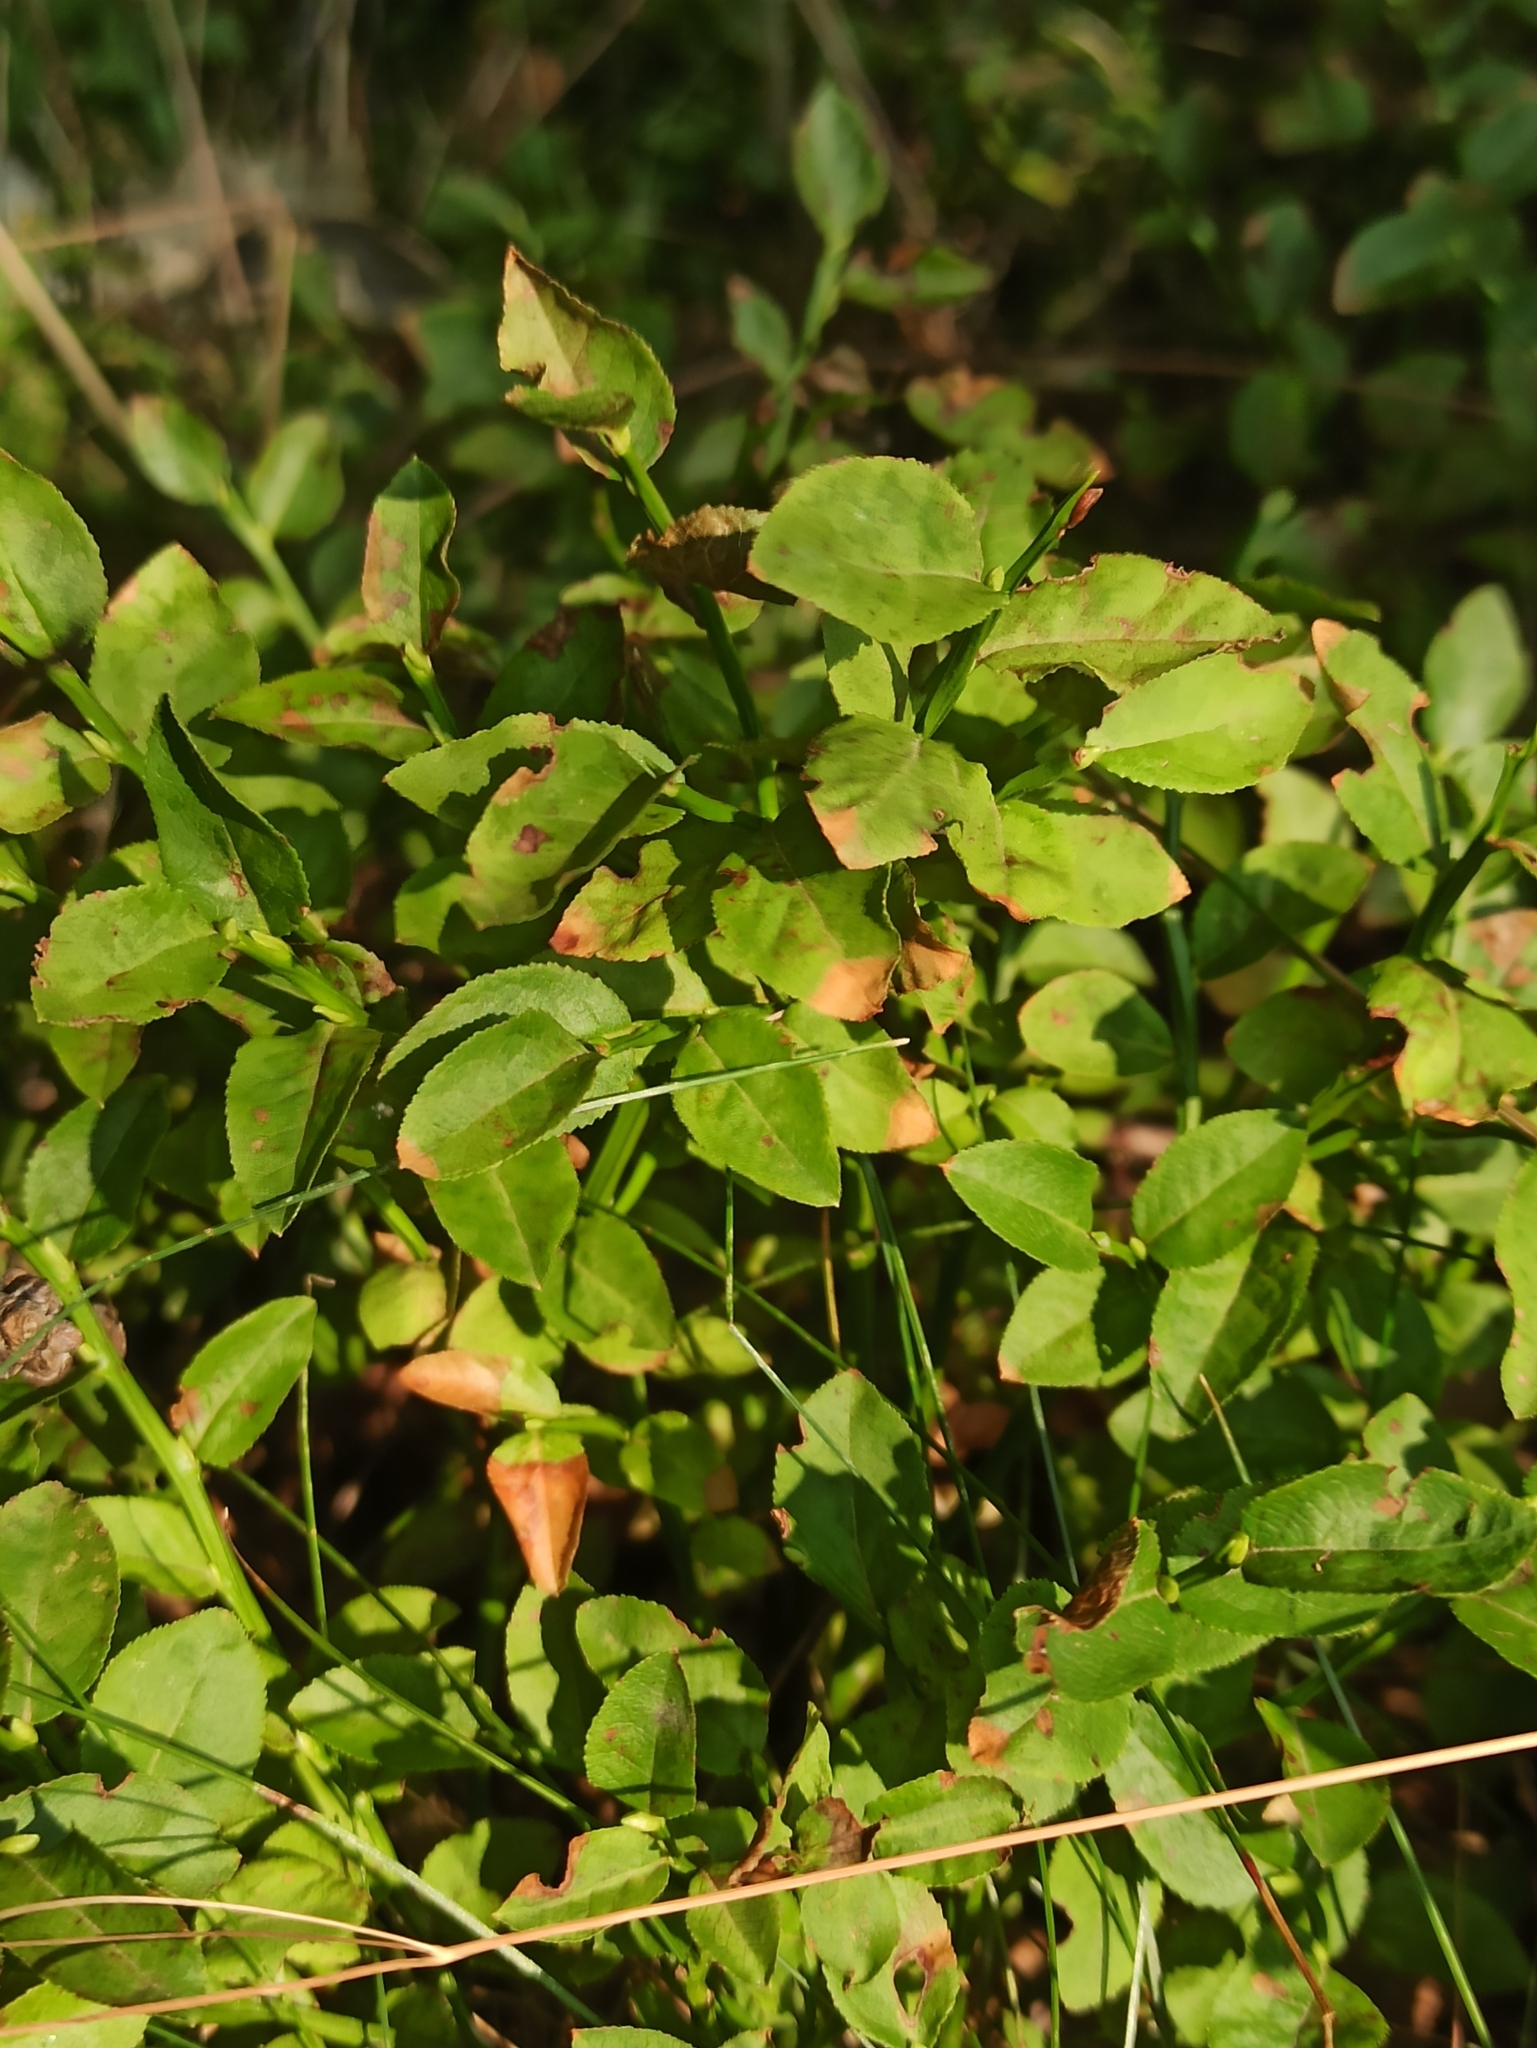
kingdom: Plantae
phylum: Tracheophyta
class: Magnoliopsida
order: Ericales
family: Ericaceae
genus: Vaccinium
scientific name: Vaccinium myrtillus
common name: Bilberry
